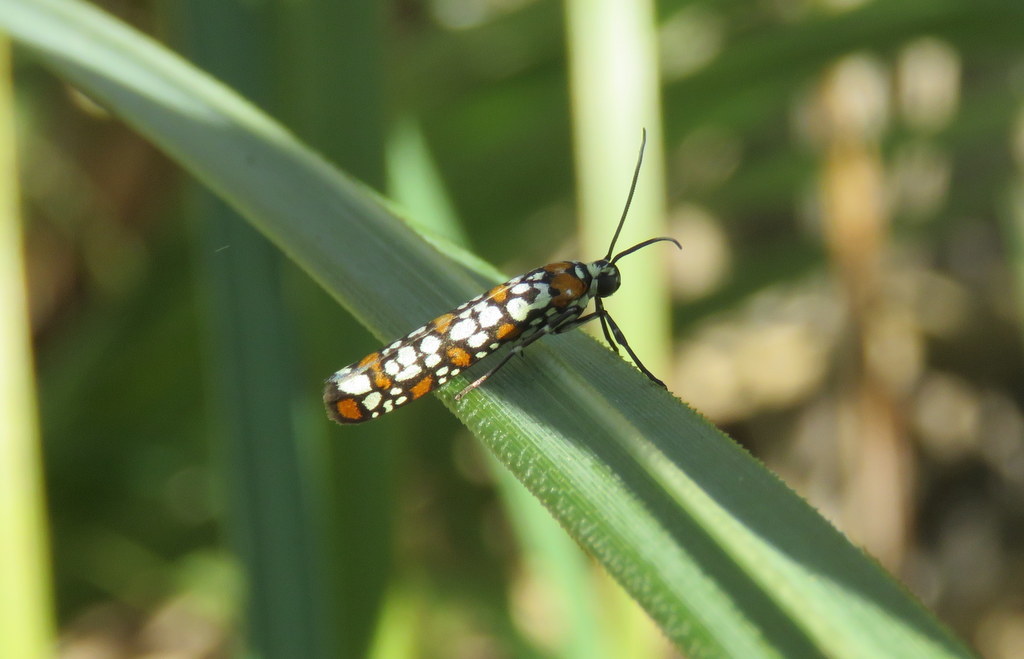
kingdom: Animalia
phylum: Arthropoda
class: Insecta
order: Lepidoptera
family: Attevidae
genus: Atteva
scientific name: Atteva punctella
